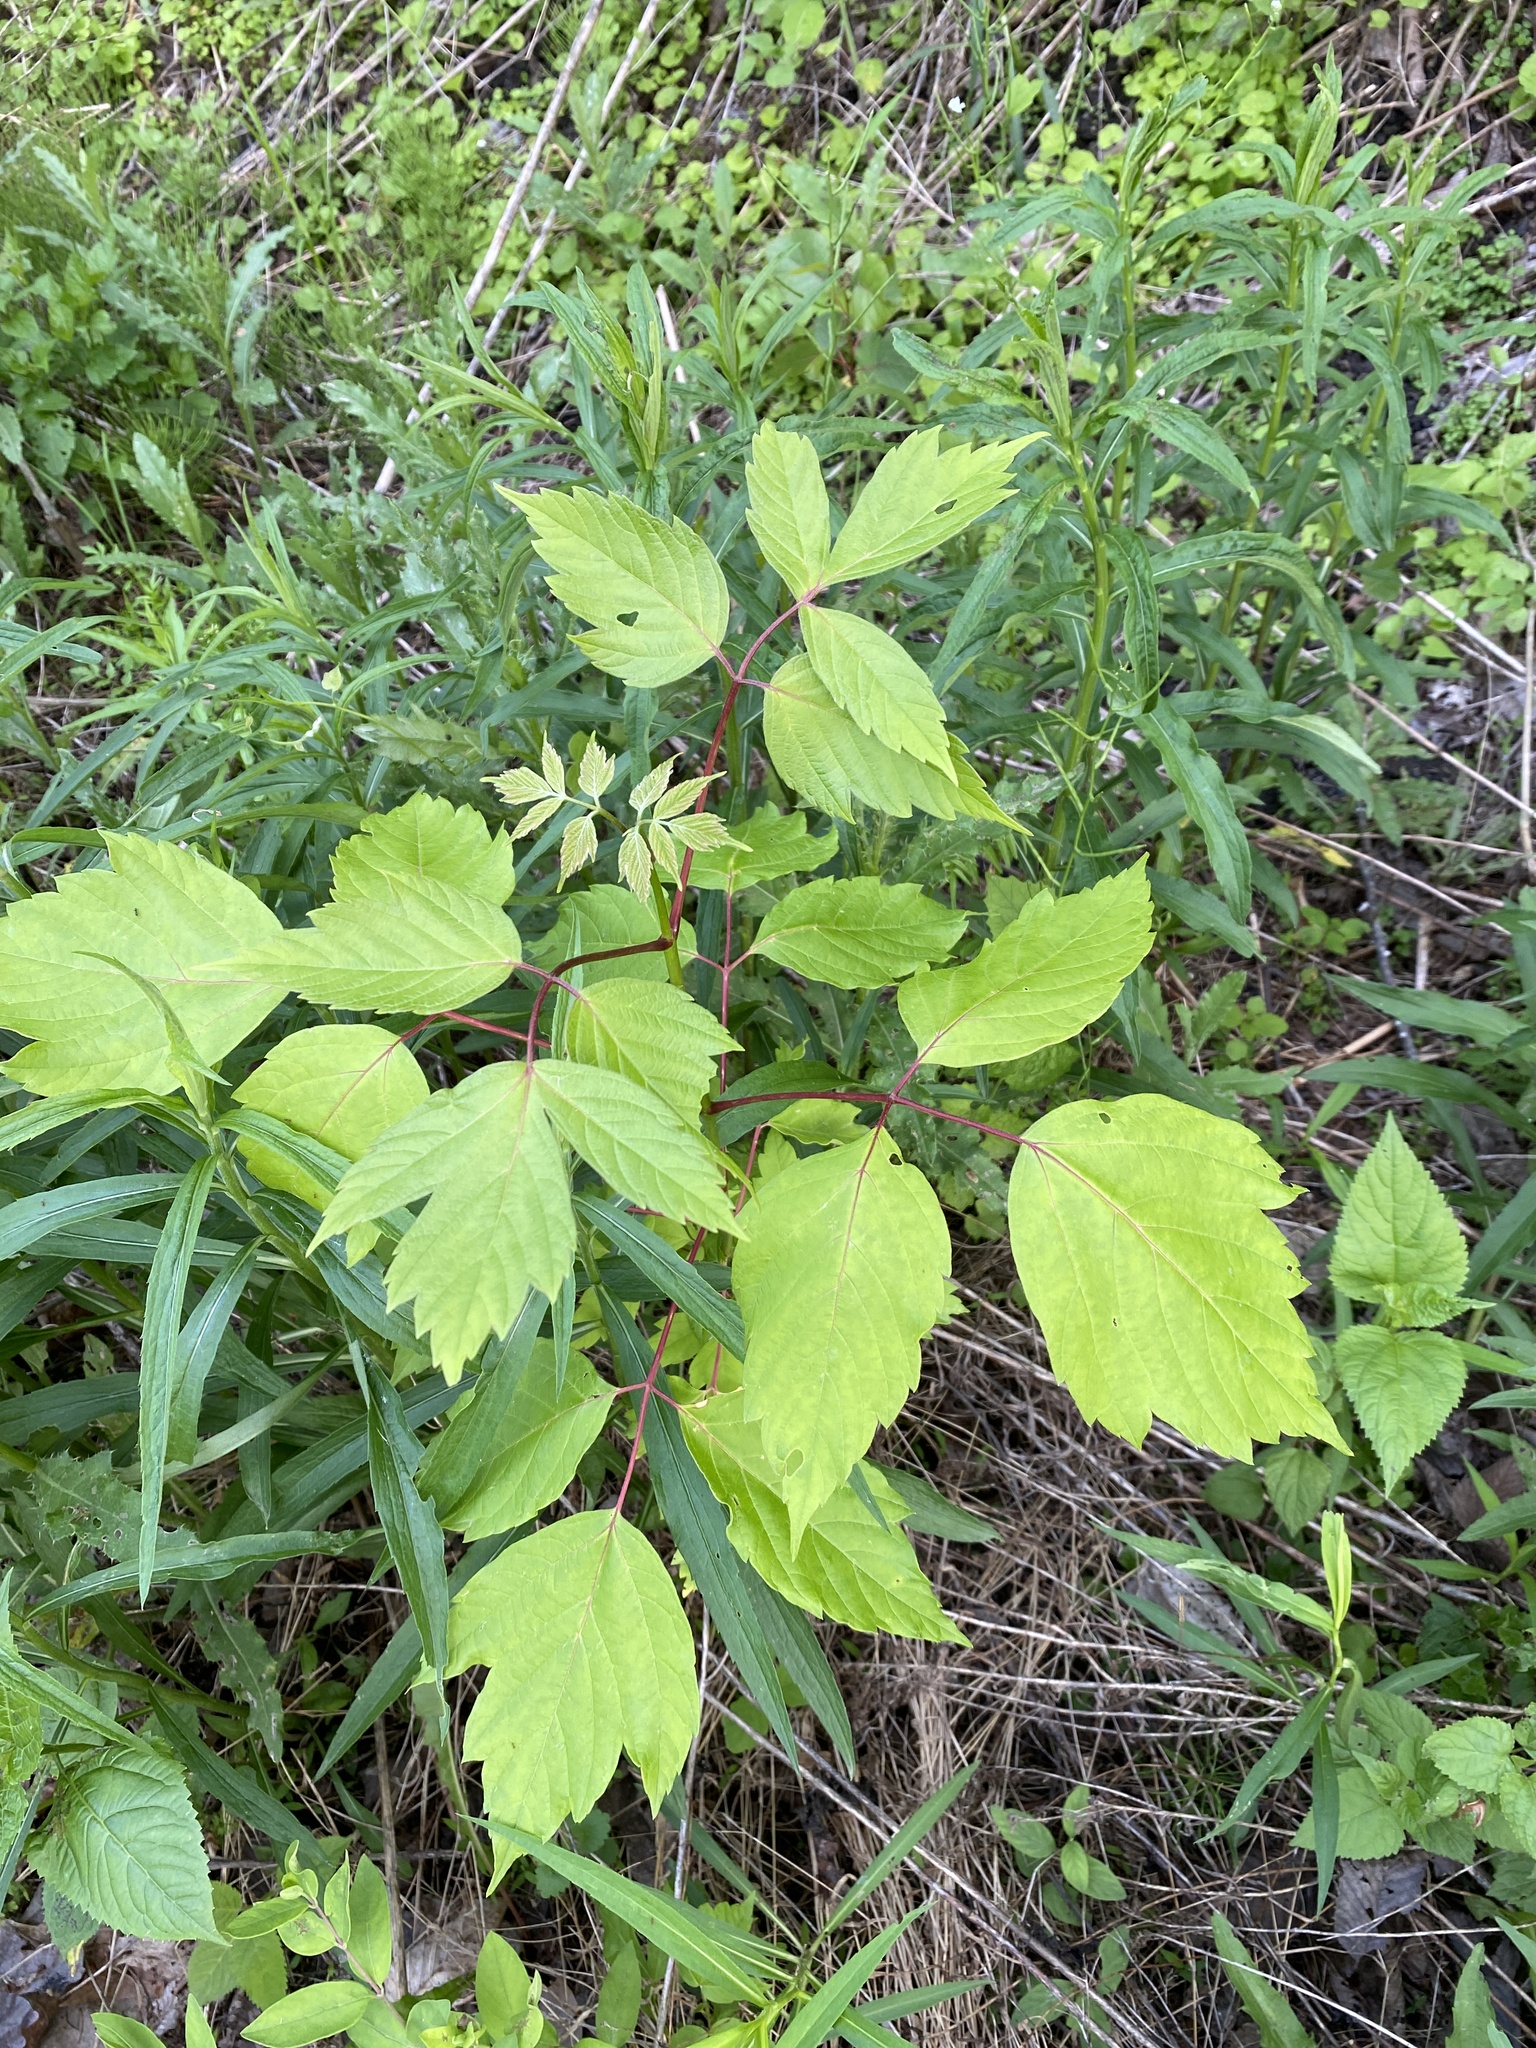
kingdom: Plantae
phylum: Tracheophyta
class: Magnoliopsida
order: Sapindales
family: Sapindaceae
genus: Acer
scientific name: Acer negundo
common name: Ashleaf maple
